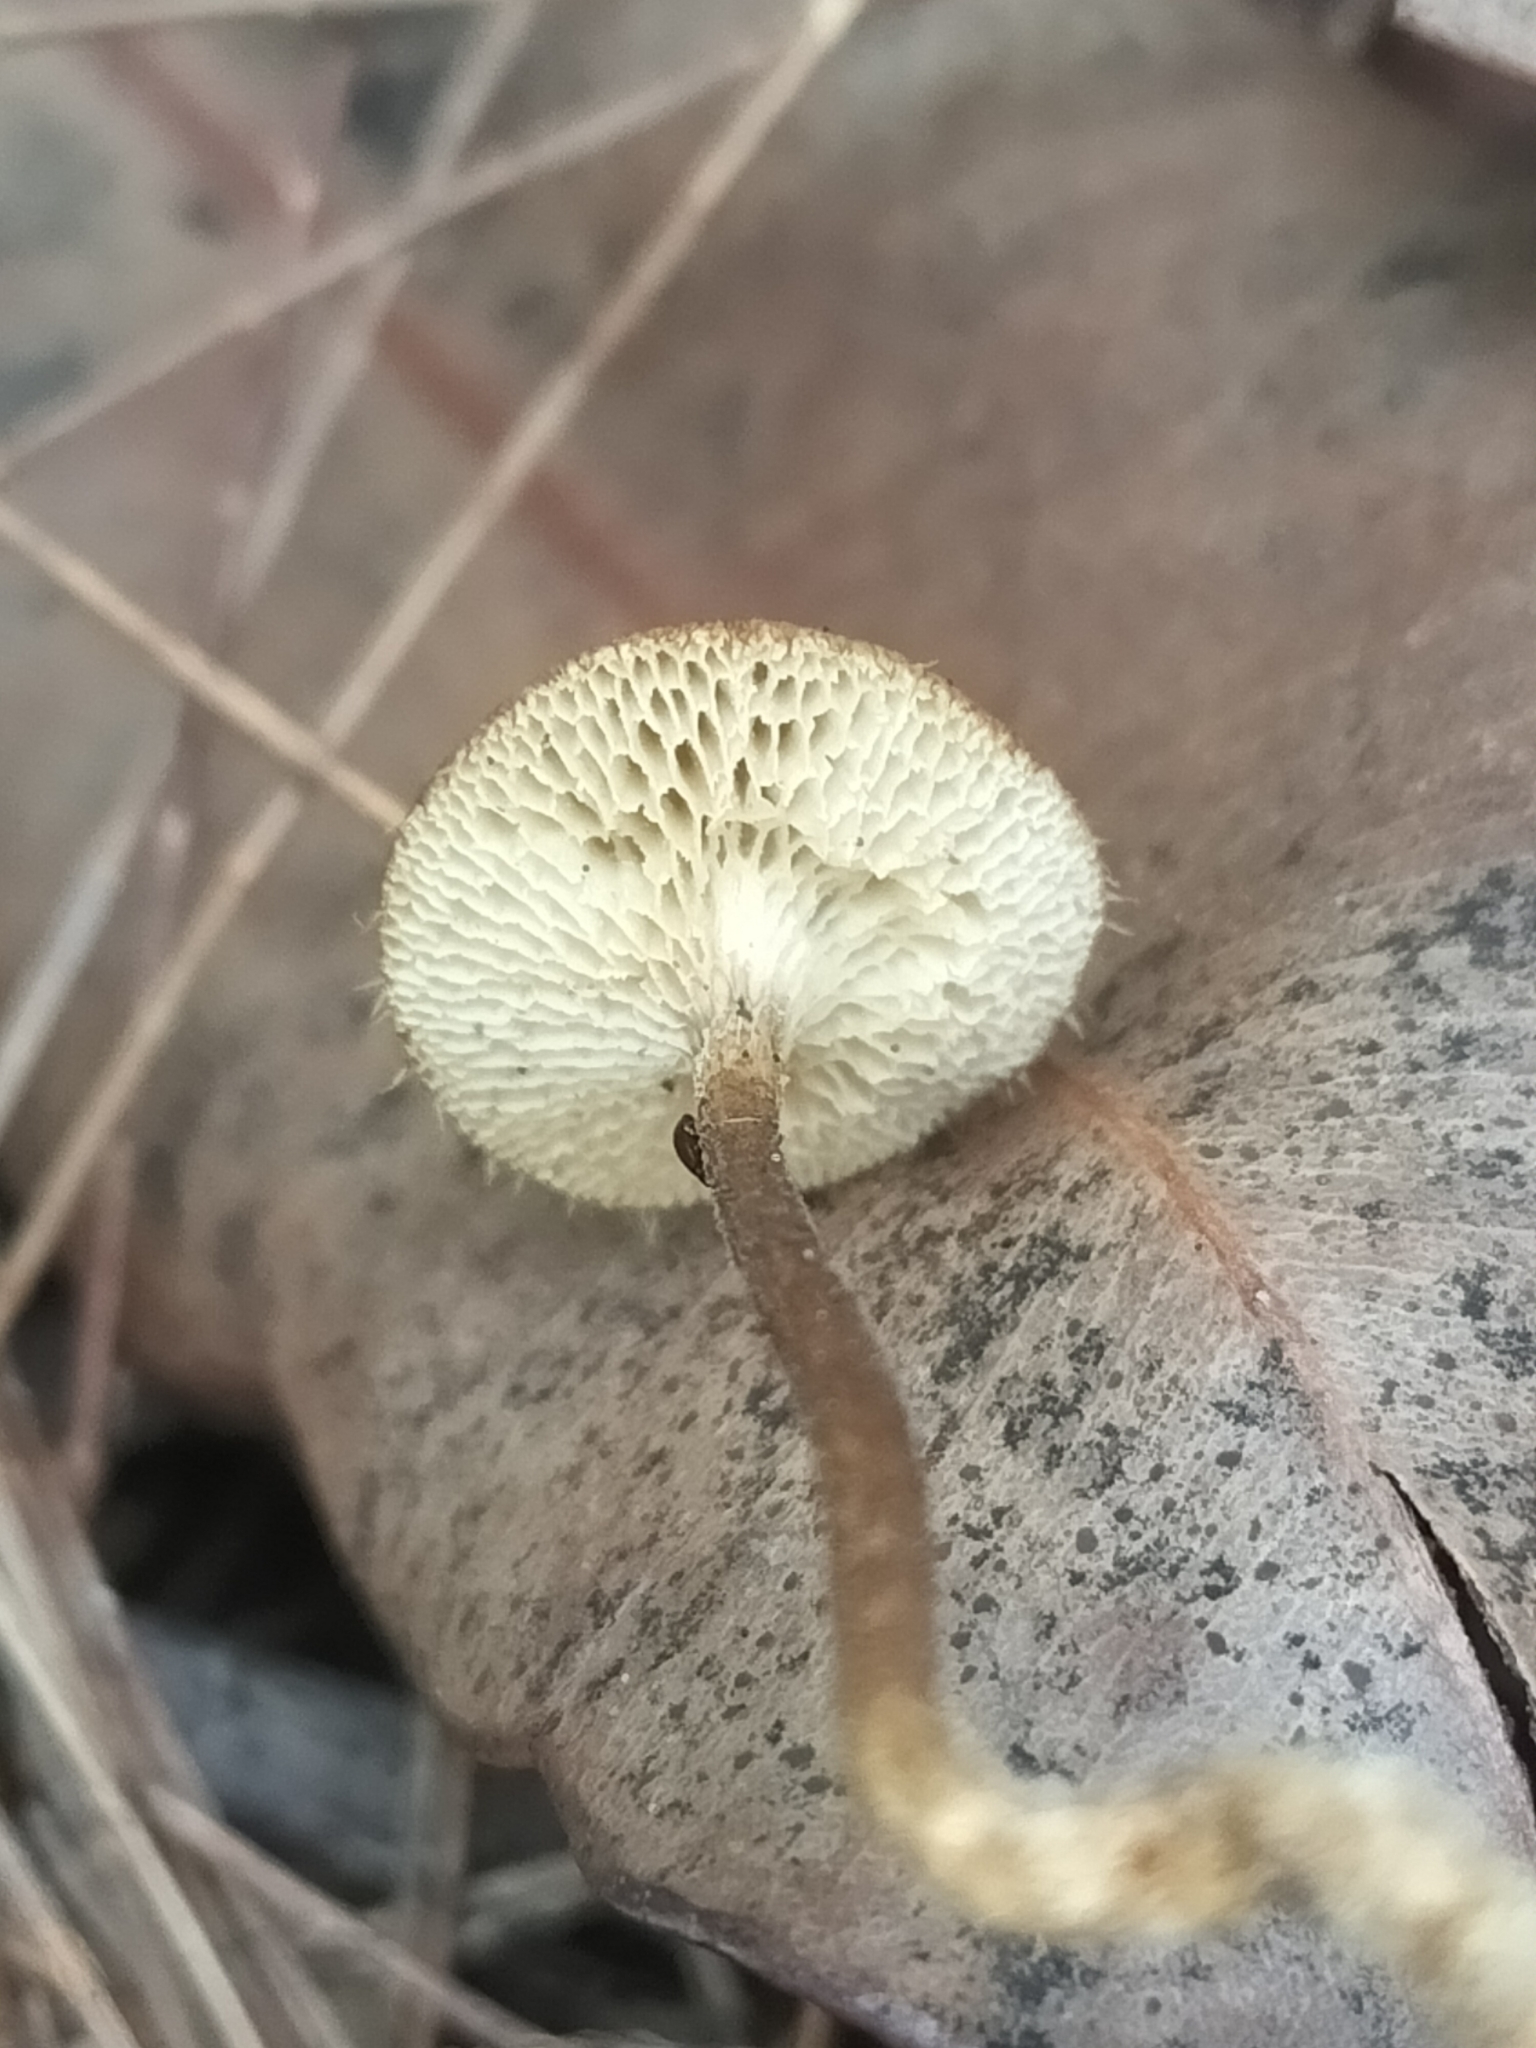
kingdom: Fungi
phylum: Basidiomycota
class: Agaricomycetes
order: Polyporales
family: Polyporaceae
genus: Lentinus
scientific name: Lentinus arcularius
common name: Spring polypore
